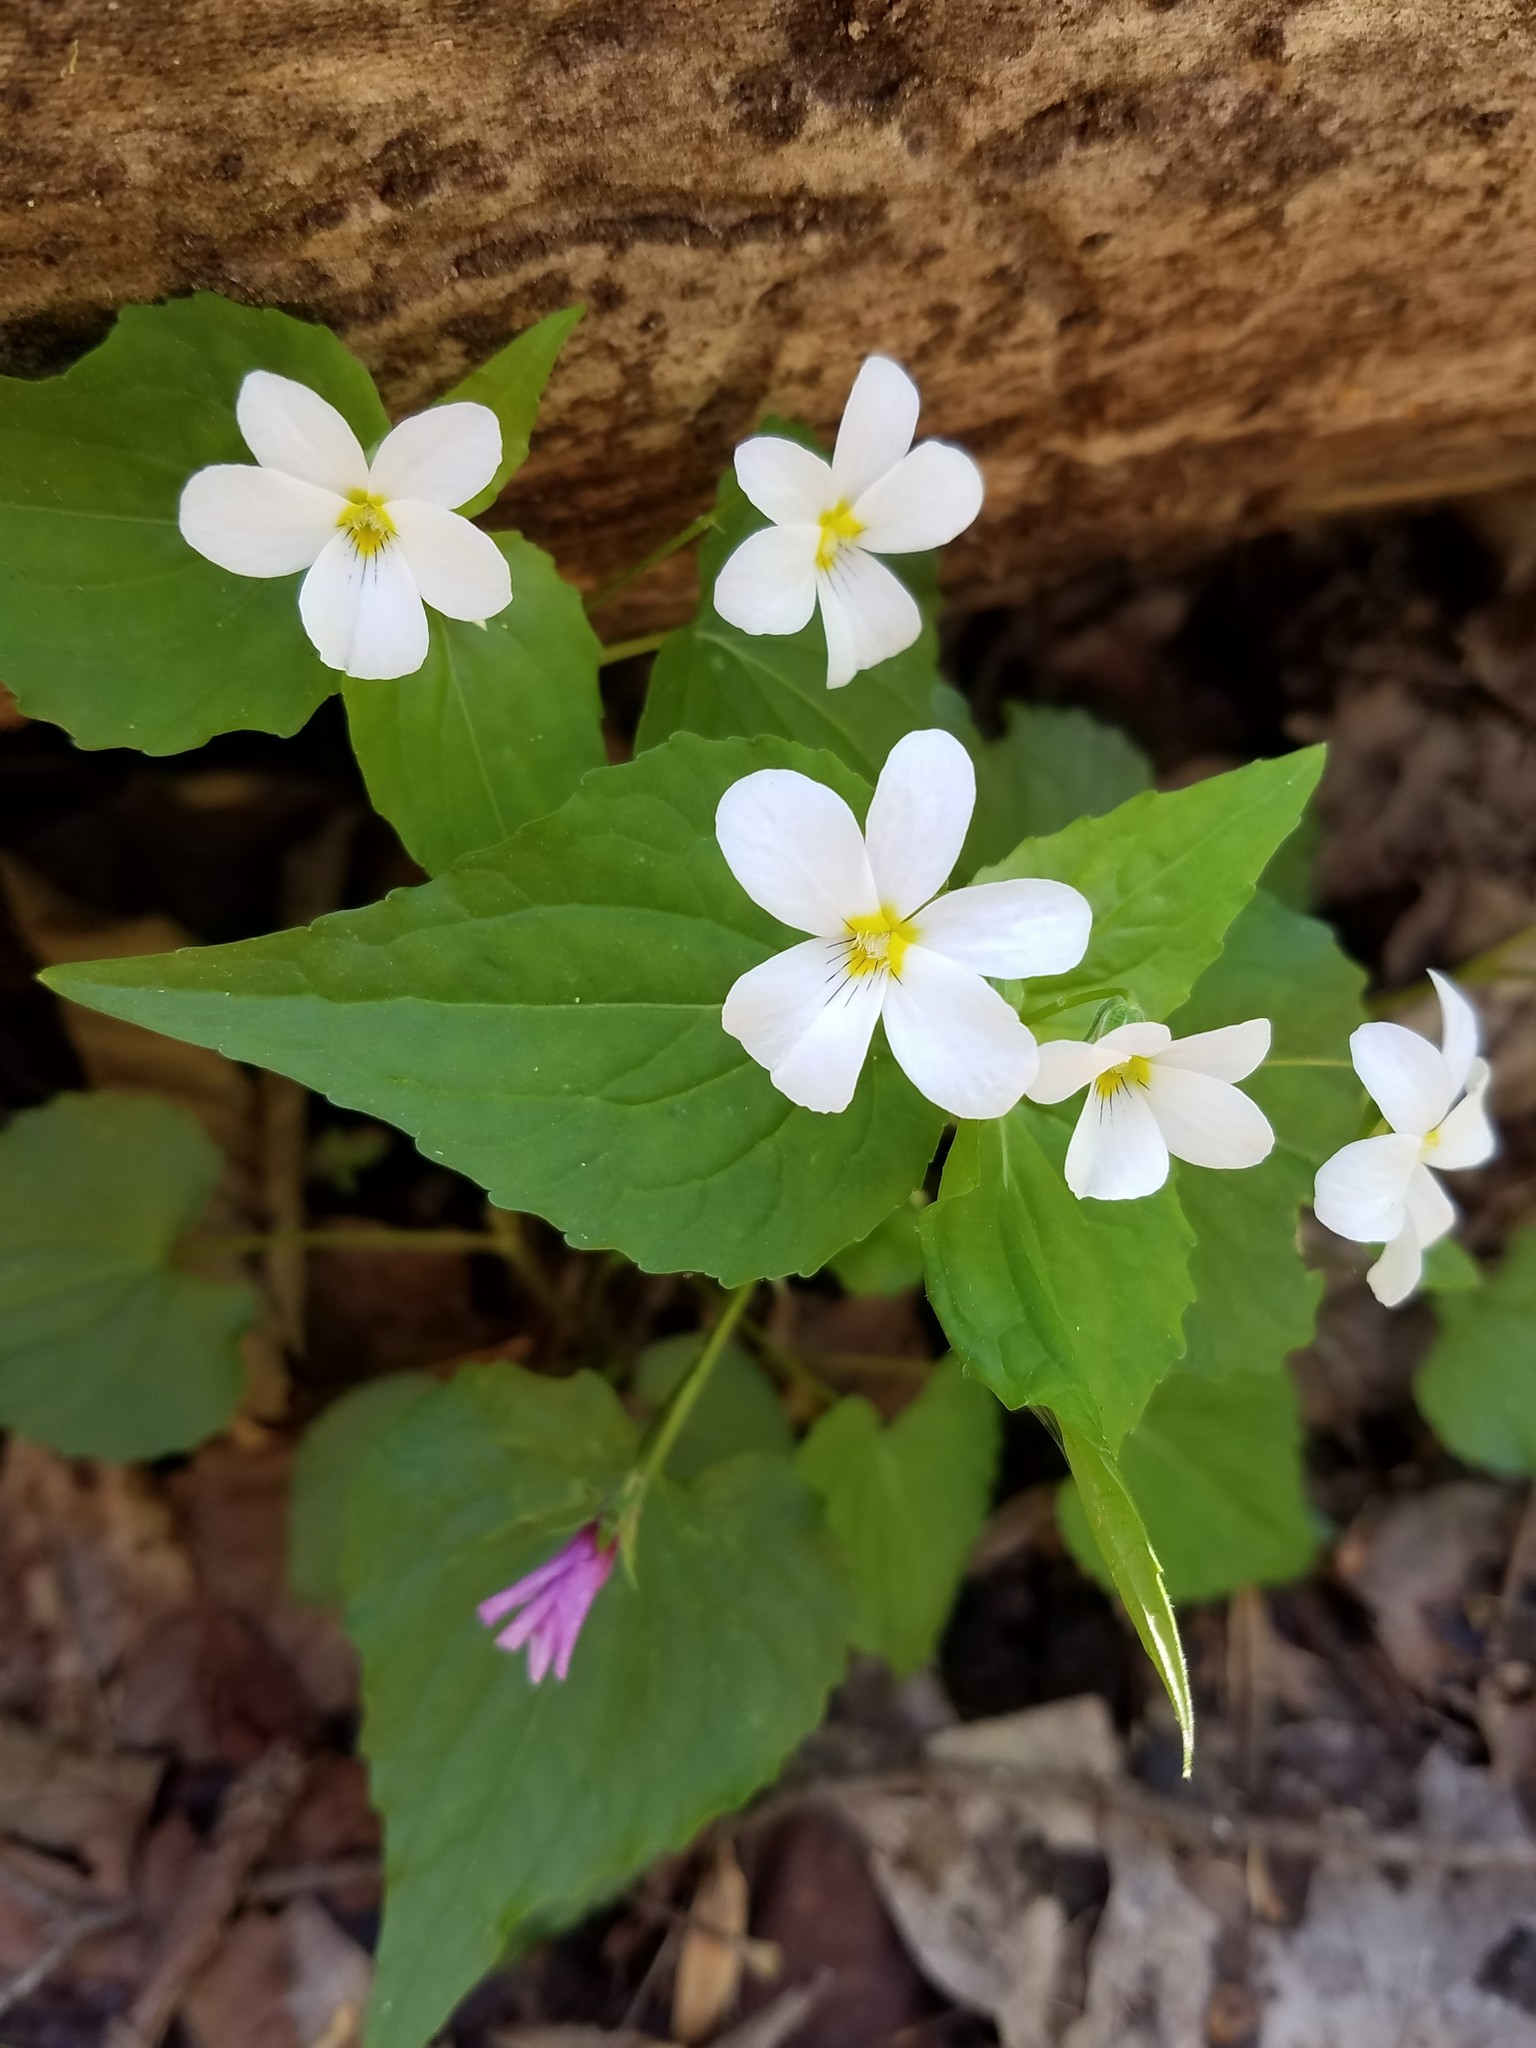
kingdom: Plantae
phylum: Tracheophyta
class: Magnoliopsida
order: Malpighiales
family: Violaceae
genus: Viola
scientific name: Viola canadensis
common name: Canada violet
